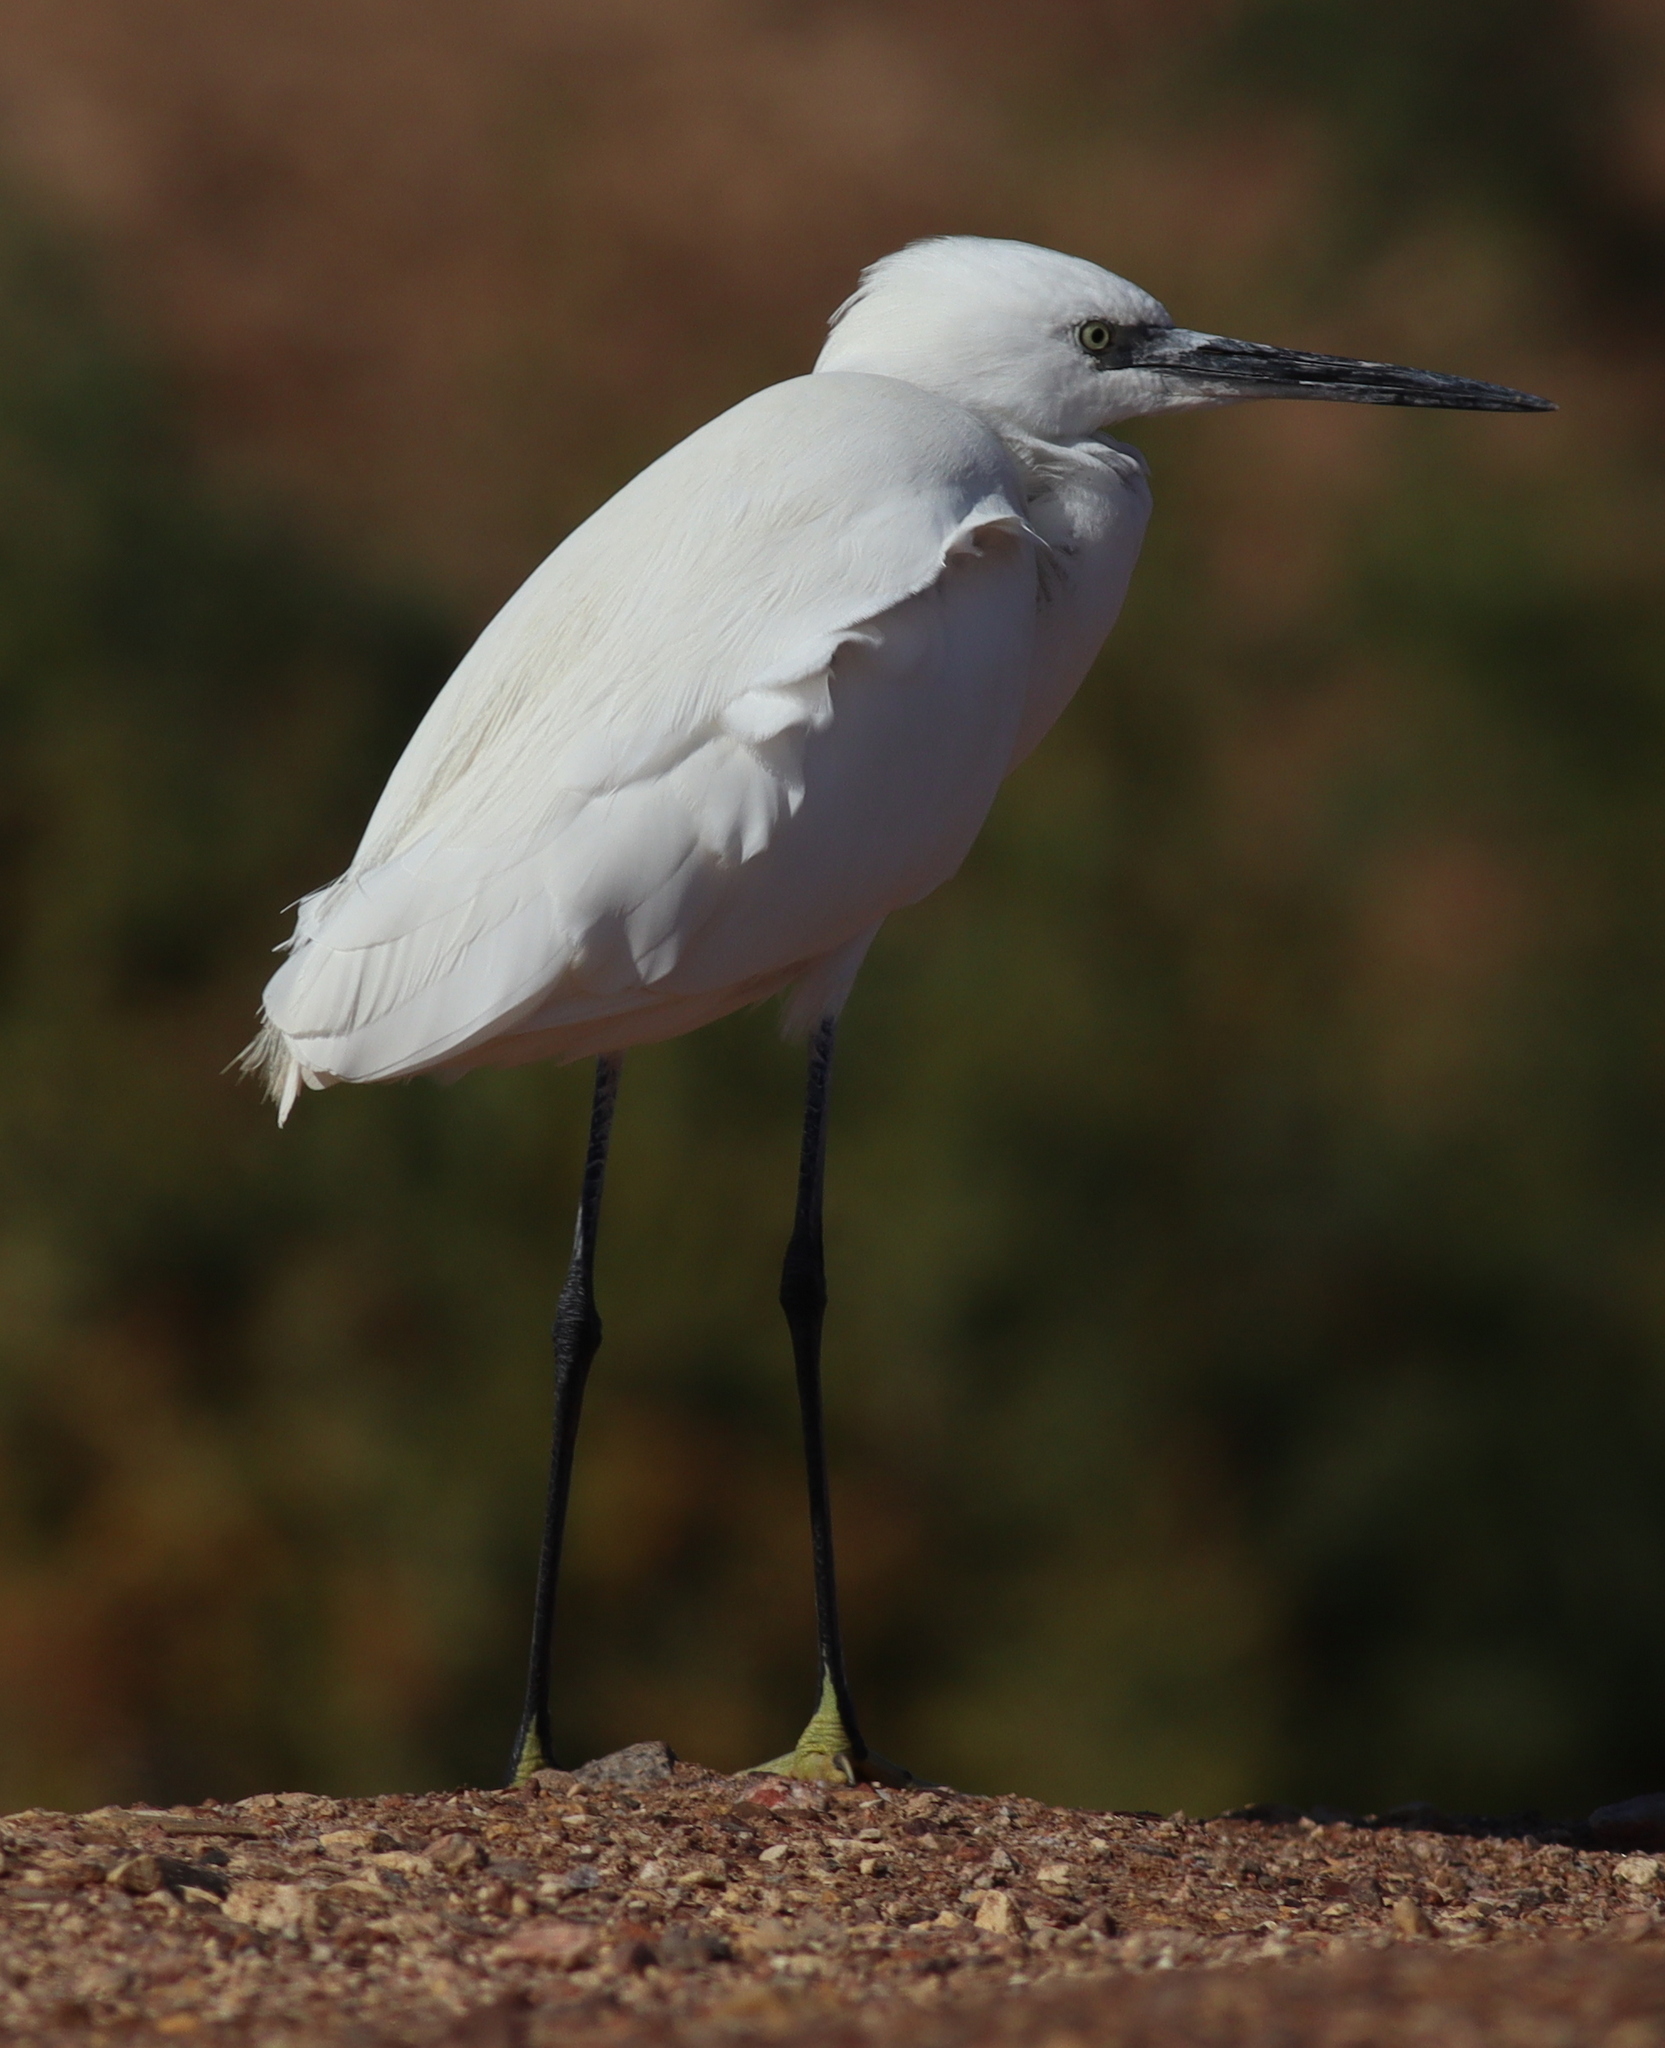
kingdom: Animalia
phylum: Chordata
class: Aves
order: Pelecaniformes
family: Ardeidae
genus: Egretta
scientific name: Egretta gularis
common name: Western reef-heron
